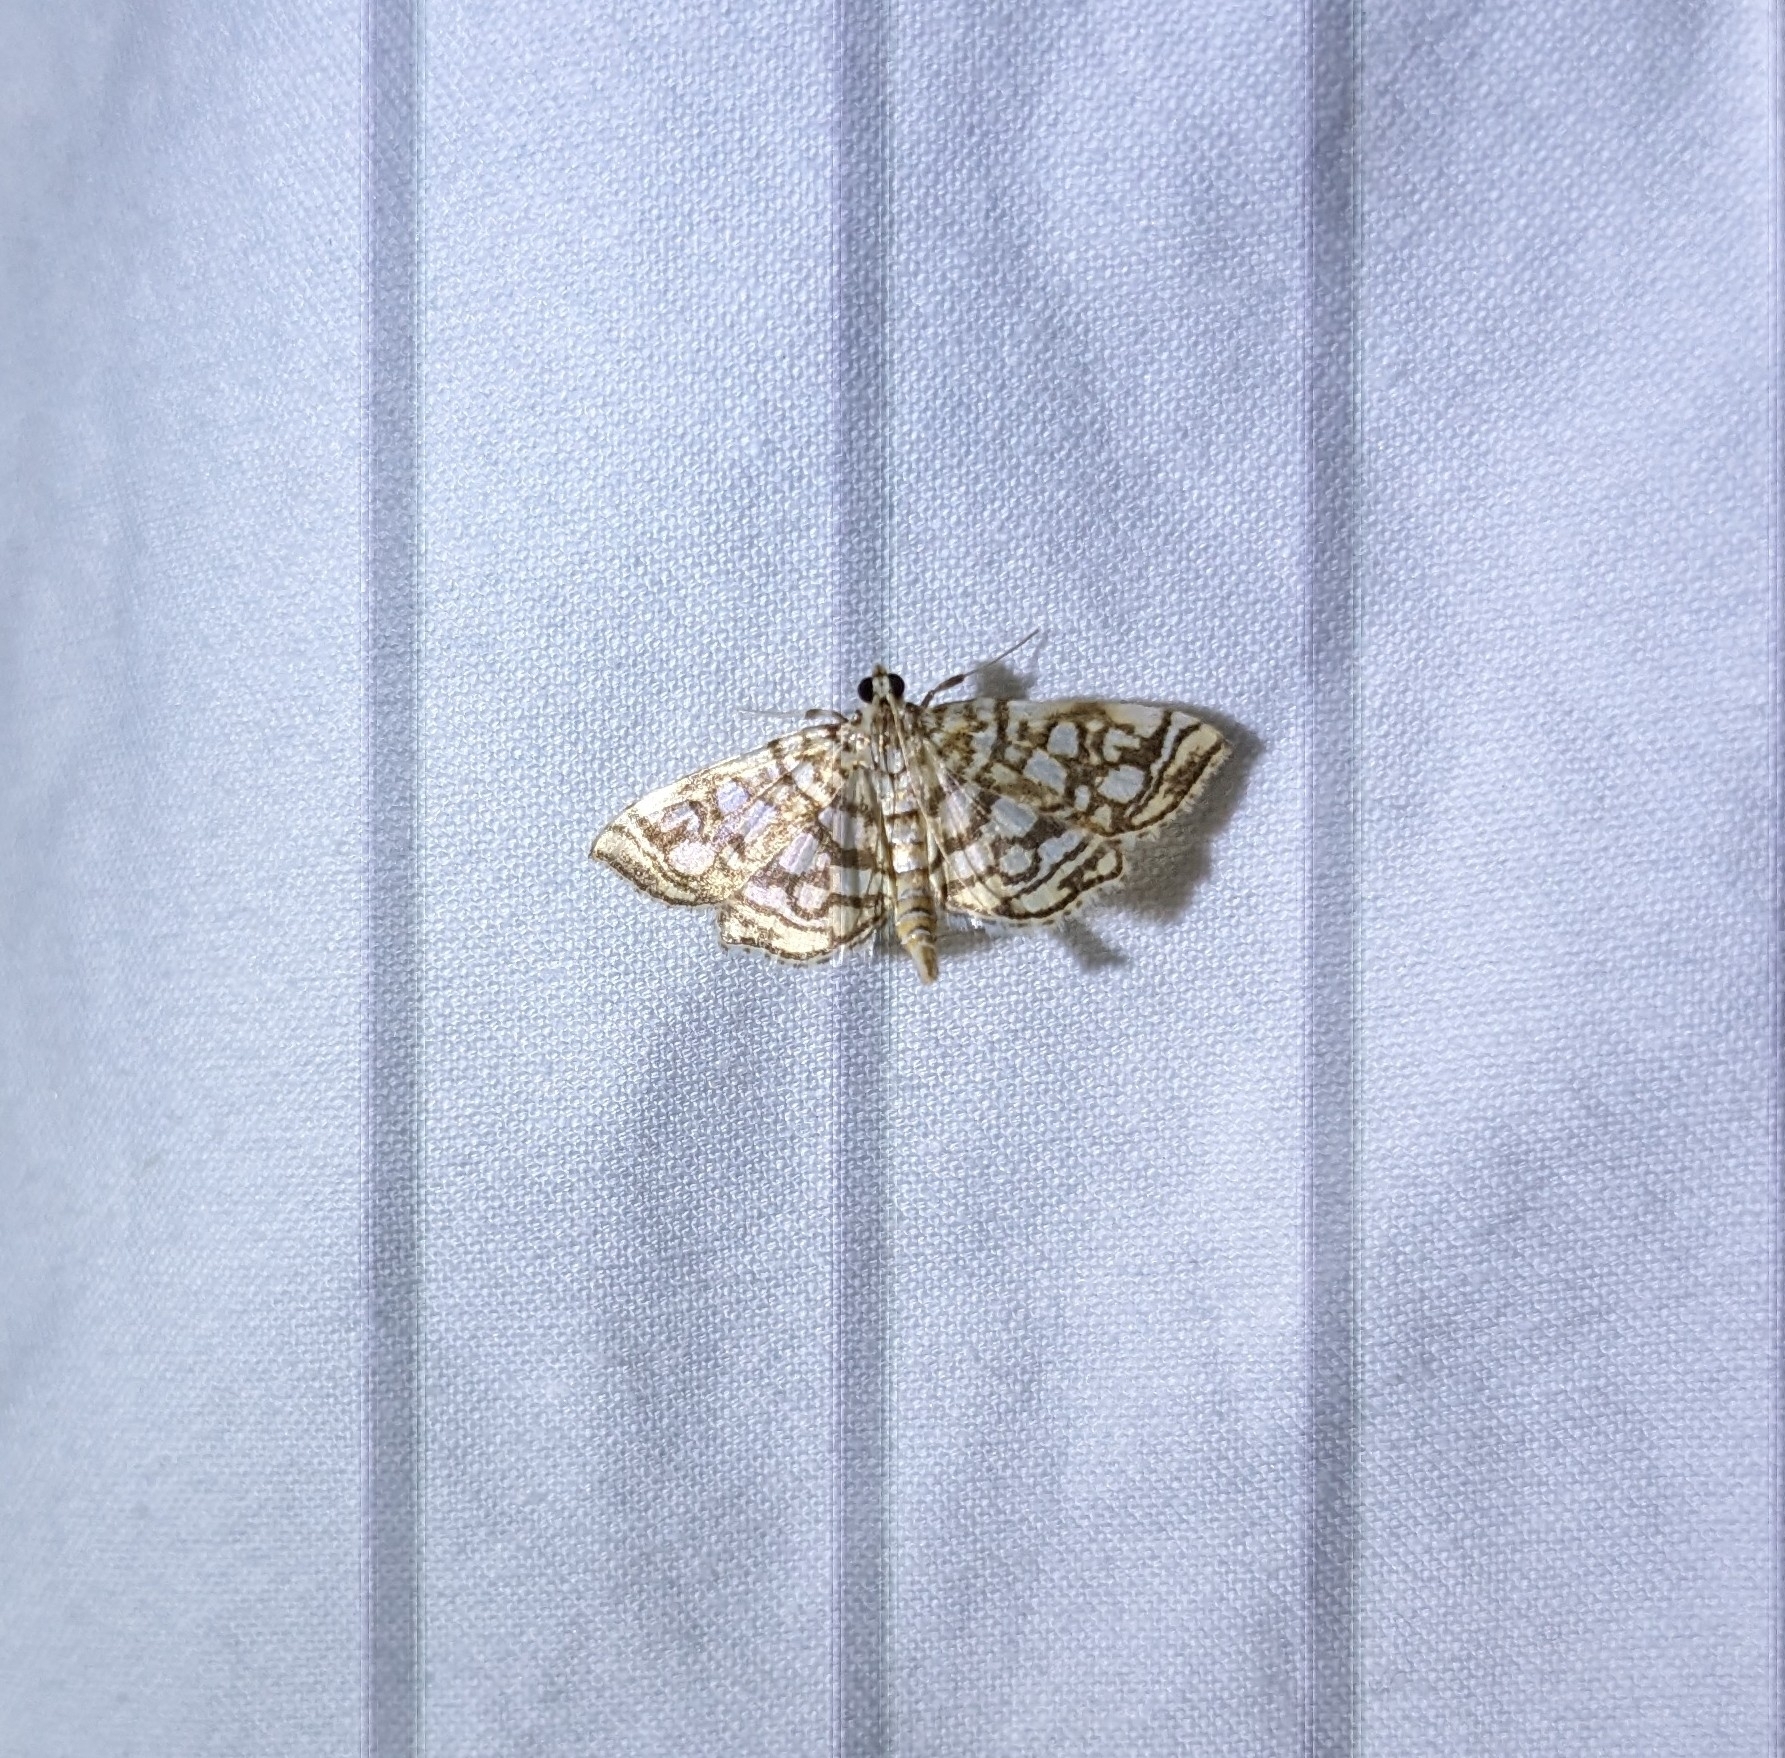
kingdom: Animalia
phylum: Arthropoda
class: Insecta
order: Lepidoptera
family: Crambidae
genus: Lygropia
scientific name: Lygropia rivulalis
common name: Bog lygropia moth
